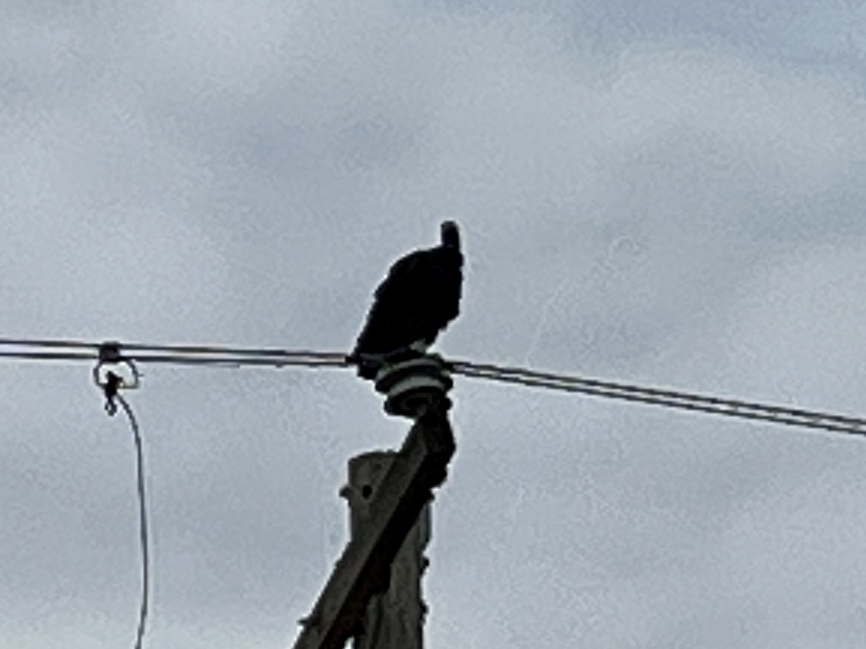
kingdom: Animalia
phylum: Chordata
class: Aves
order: Accipitriformes
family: Cathartidae
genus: Coragyps
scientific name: Coragyps atratus
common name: Black vulture
